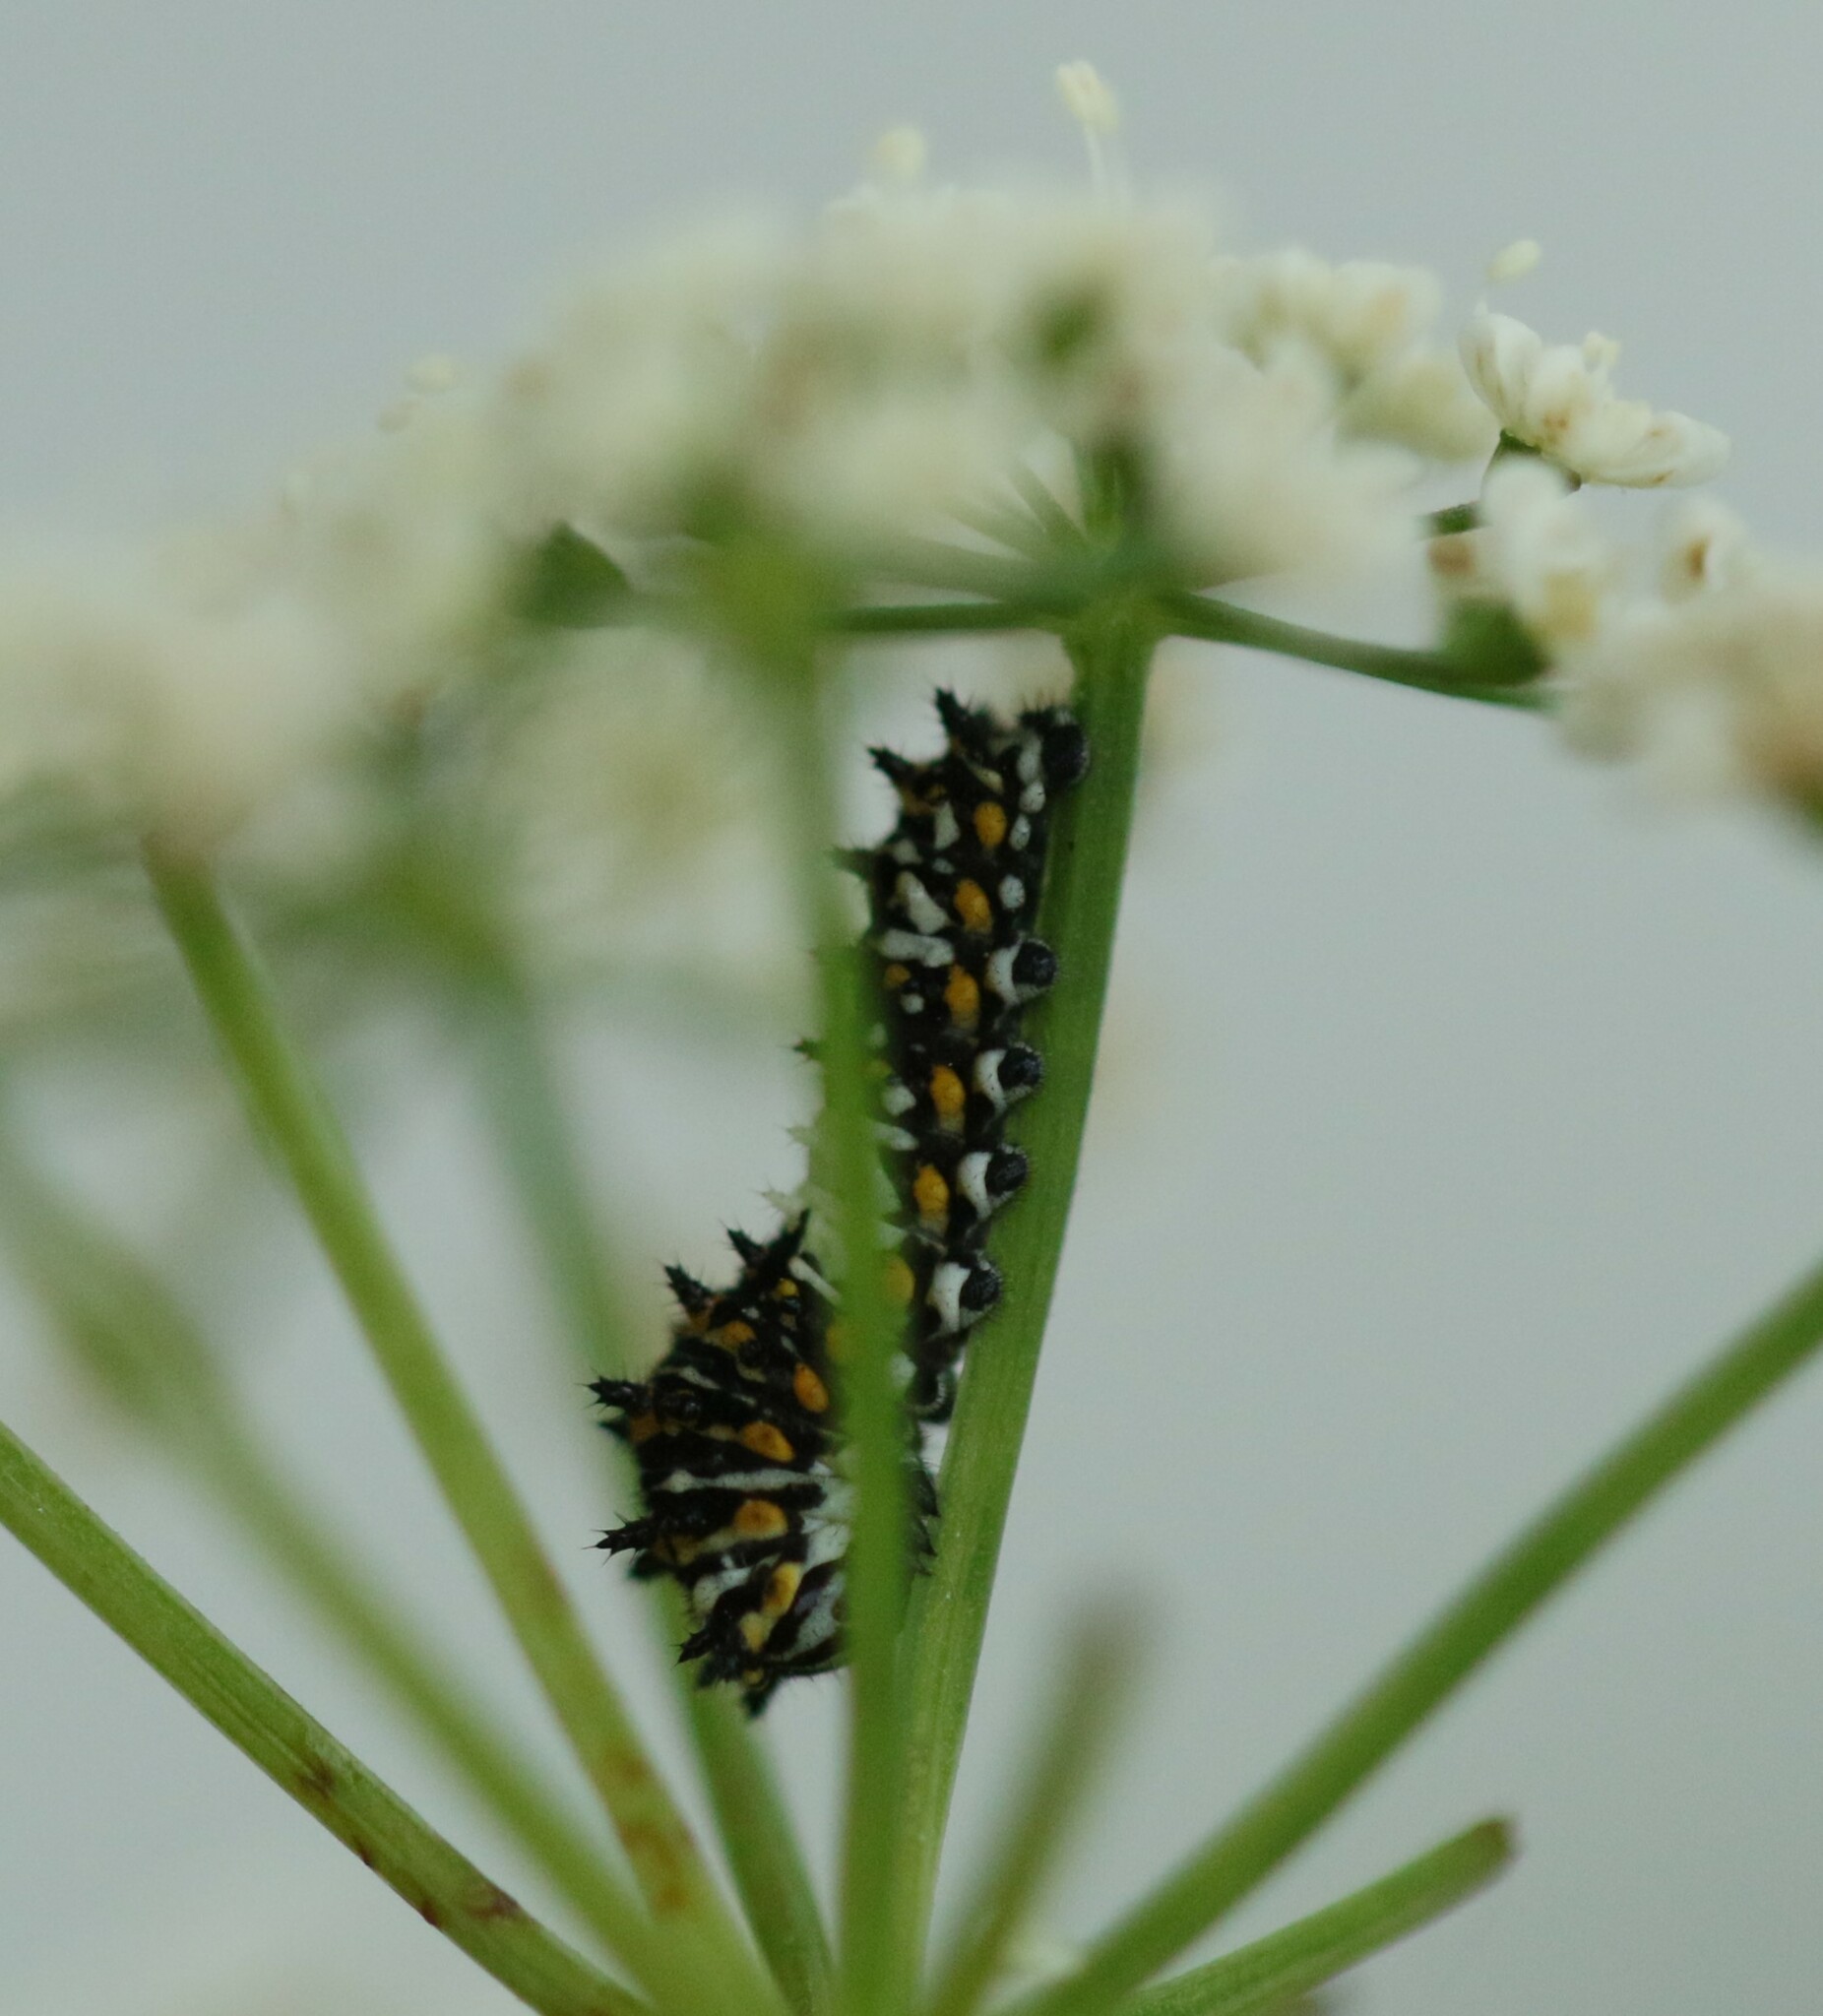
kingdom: Animalia
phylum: Arthropoda
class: Insecta
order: Lepidoptera
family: Papilionidae
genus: Papilio
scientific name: Papilio polyxenes
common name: Black swallowtail
